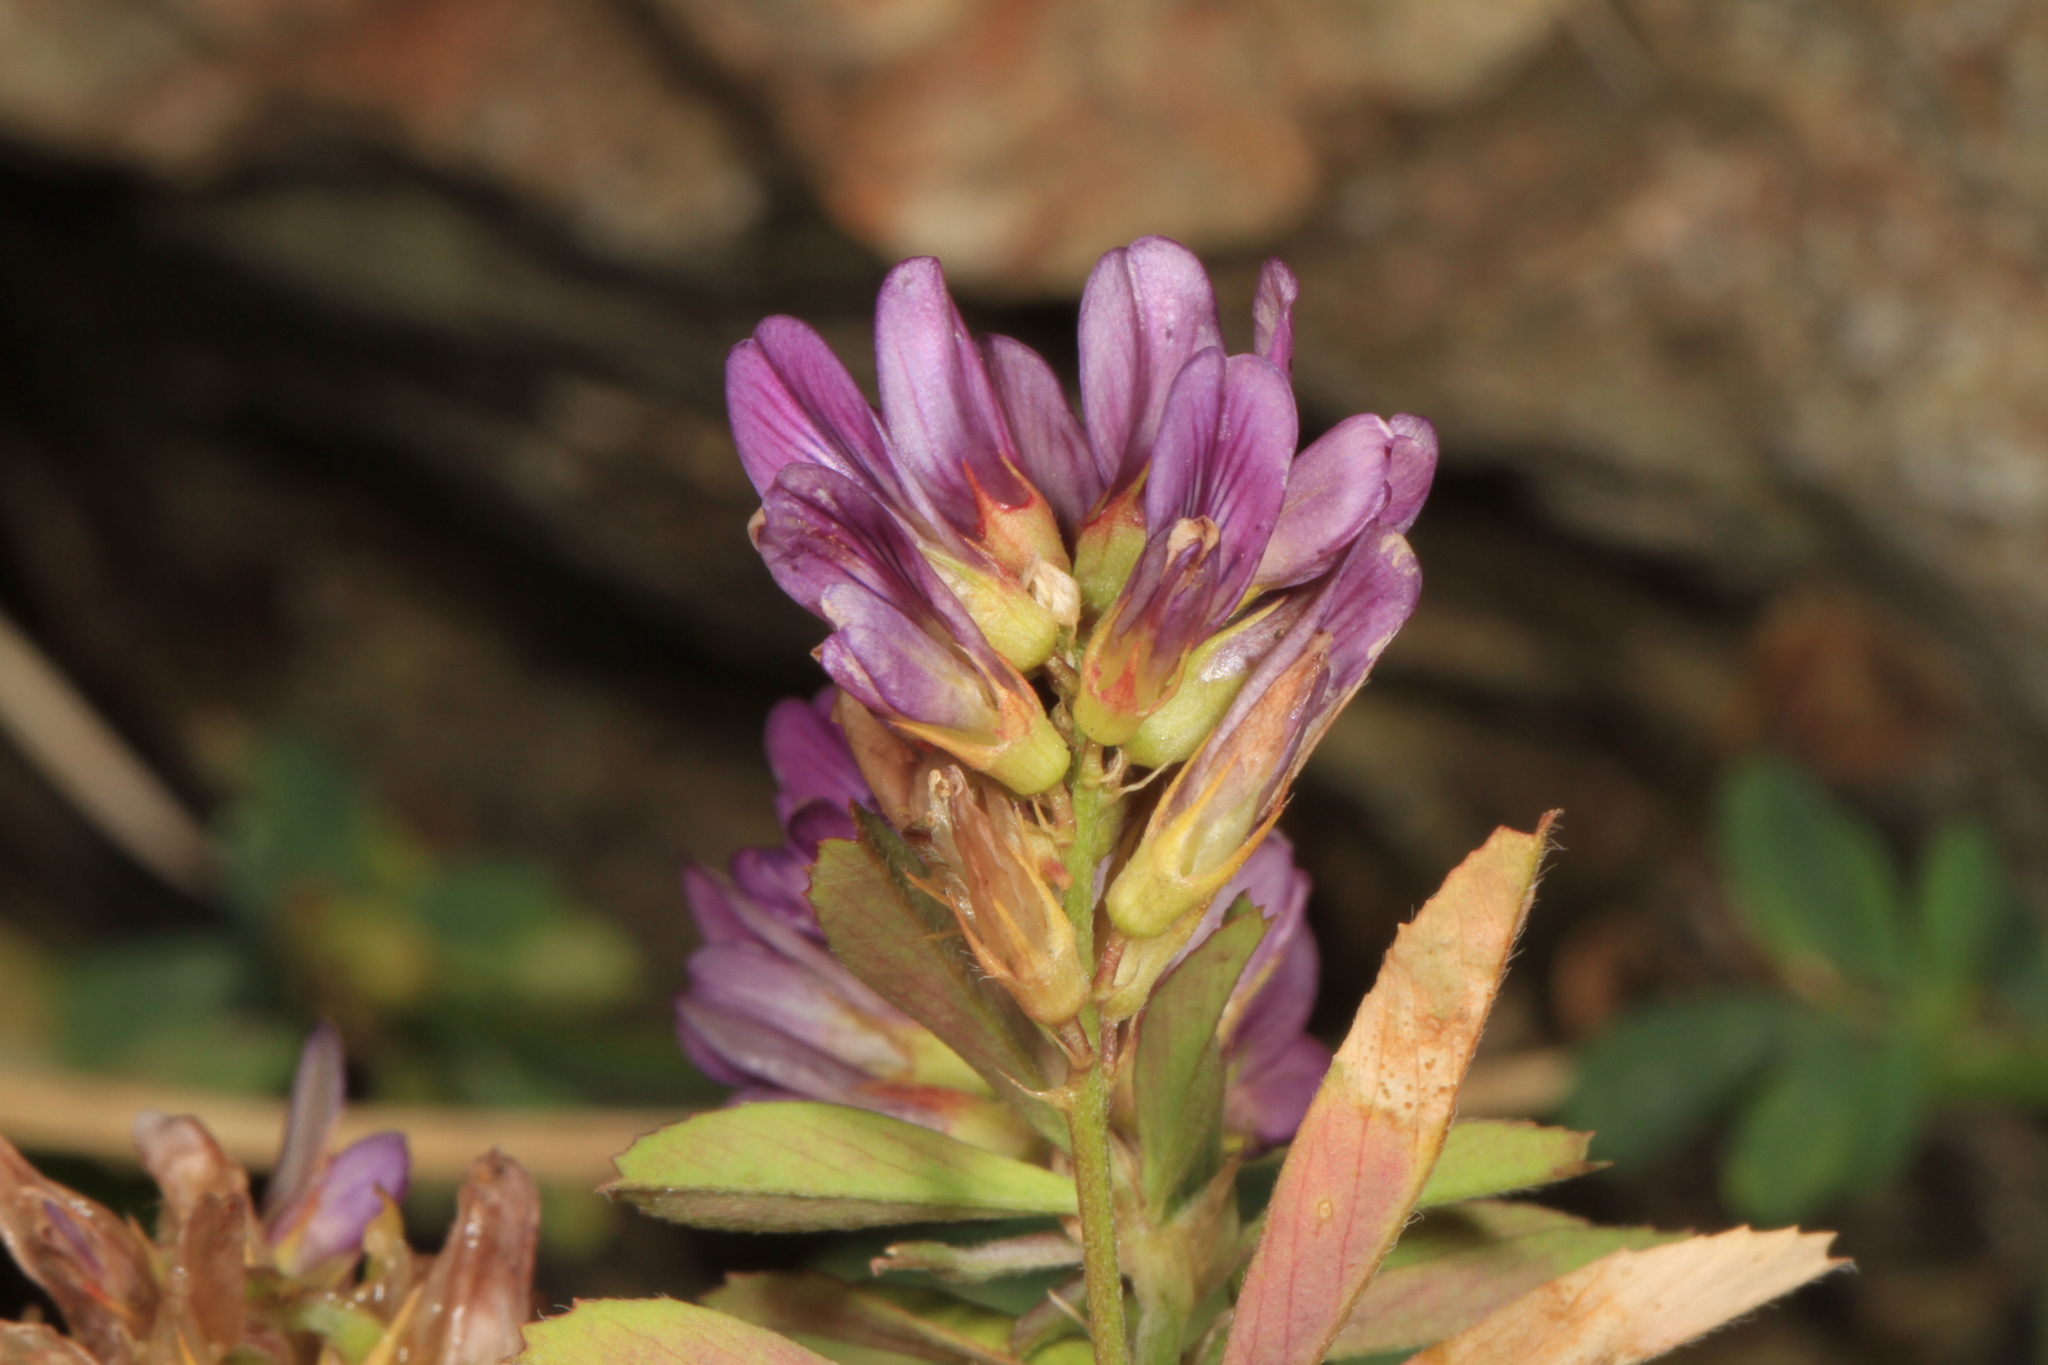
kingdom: Plantae
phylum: Tracheophyta
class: Magnoliopsida
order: Fabales
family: Fabaceae
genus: Medicago
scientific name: Medicago sativa
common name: Alfalfa
